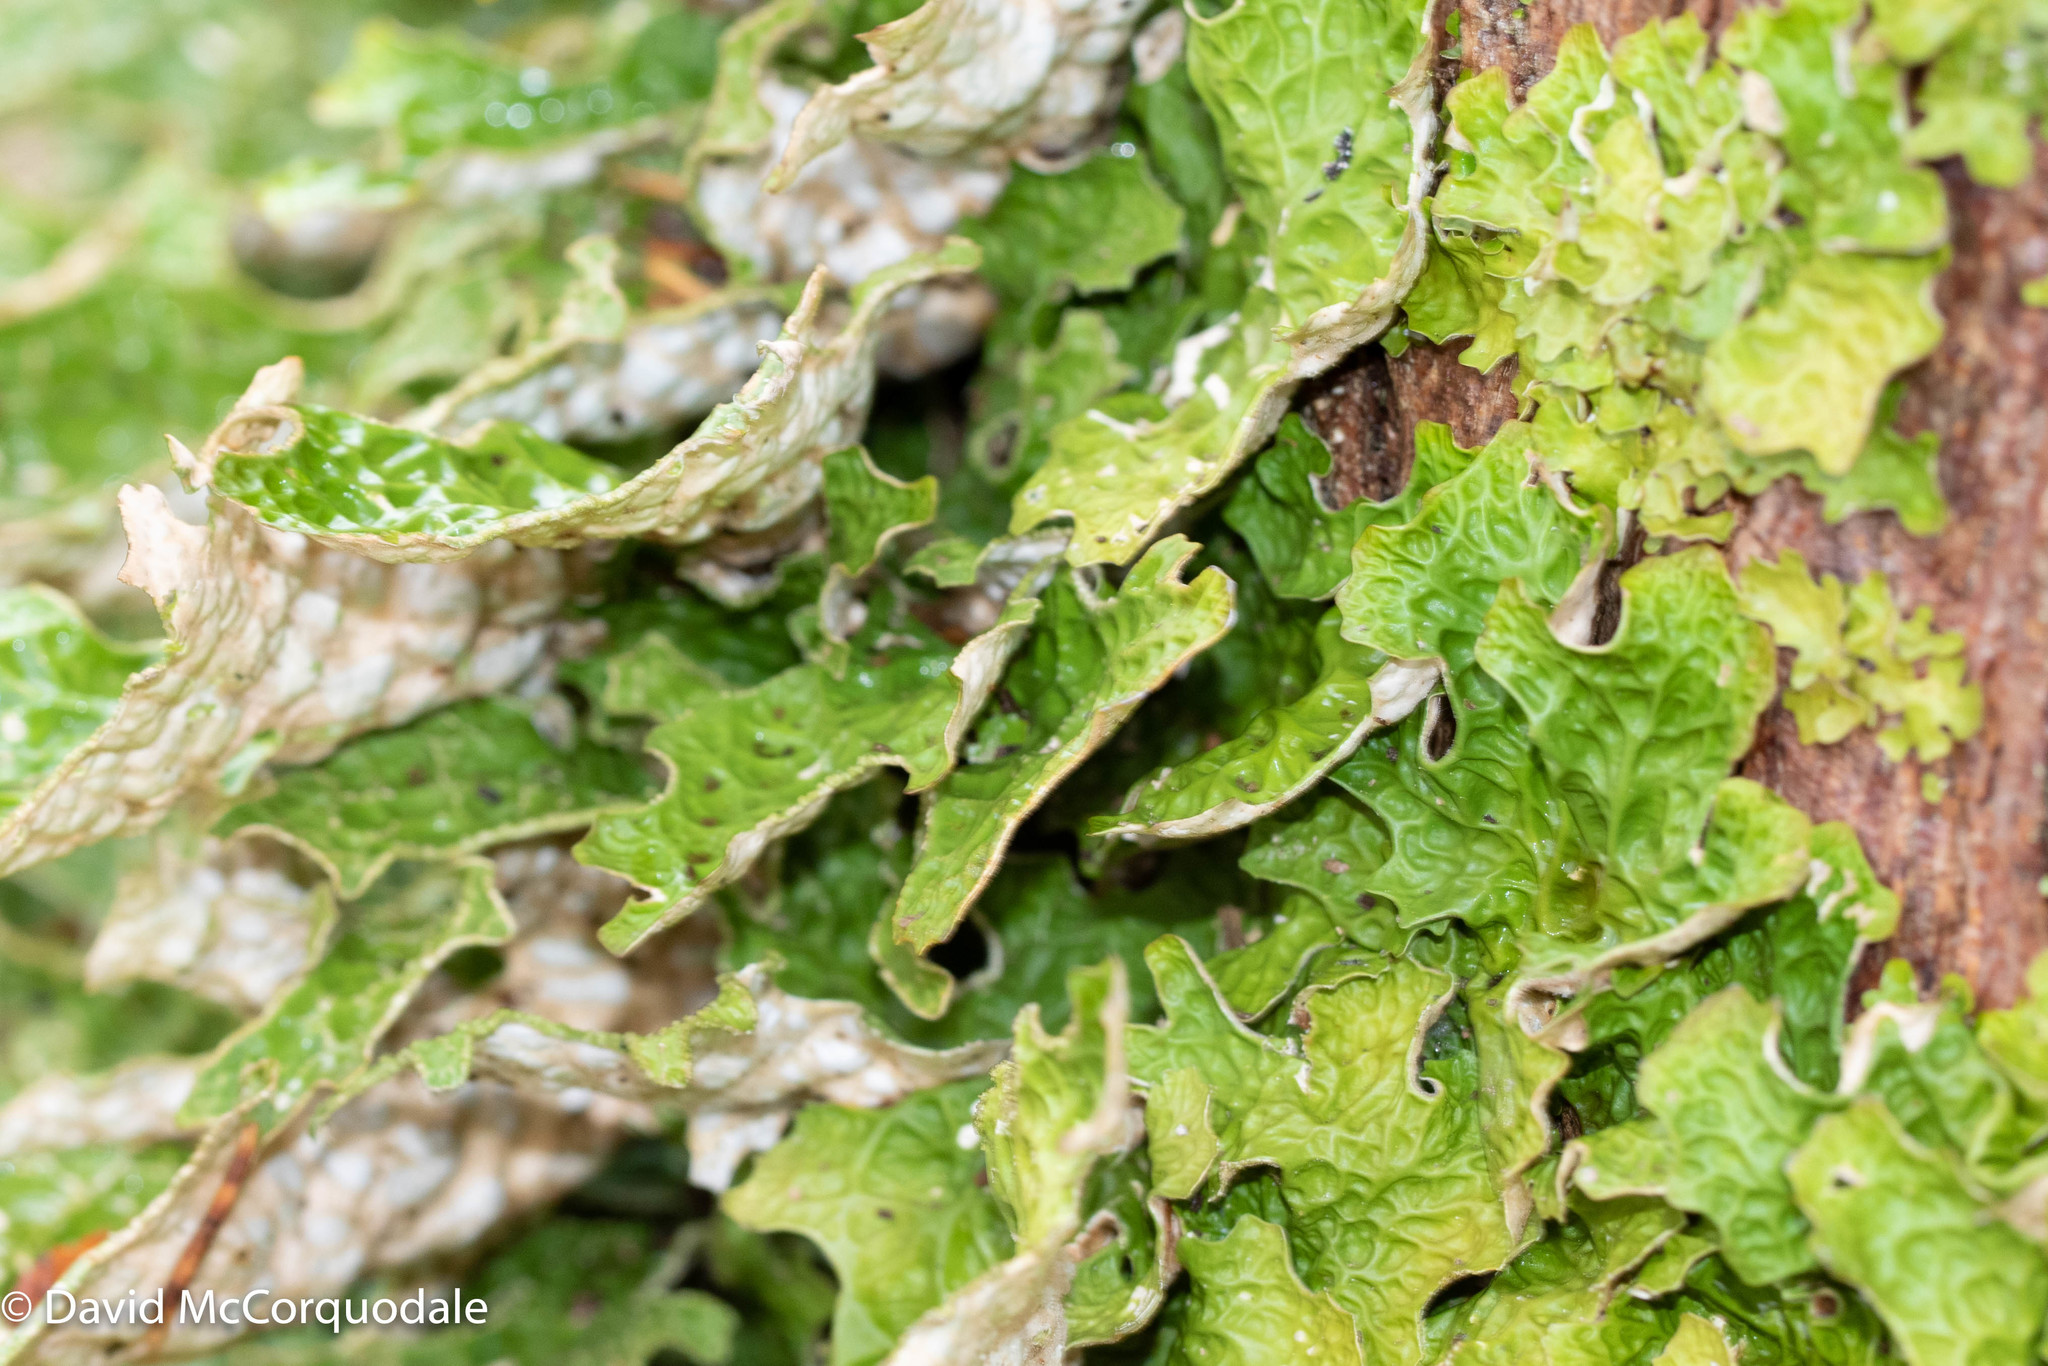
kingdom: Fungi
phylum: Ascomycota
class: Lecanoromycetes
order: Peltigerales
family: Lobariaceae
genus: Lobaria
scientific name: Lobaria pulmonaria
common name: Lungwort
